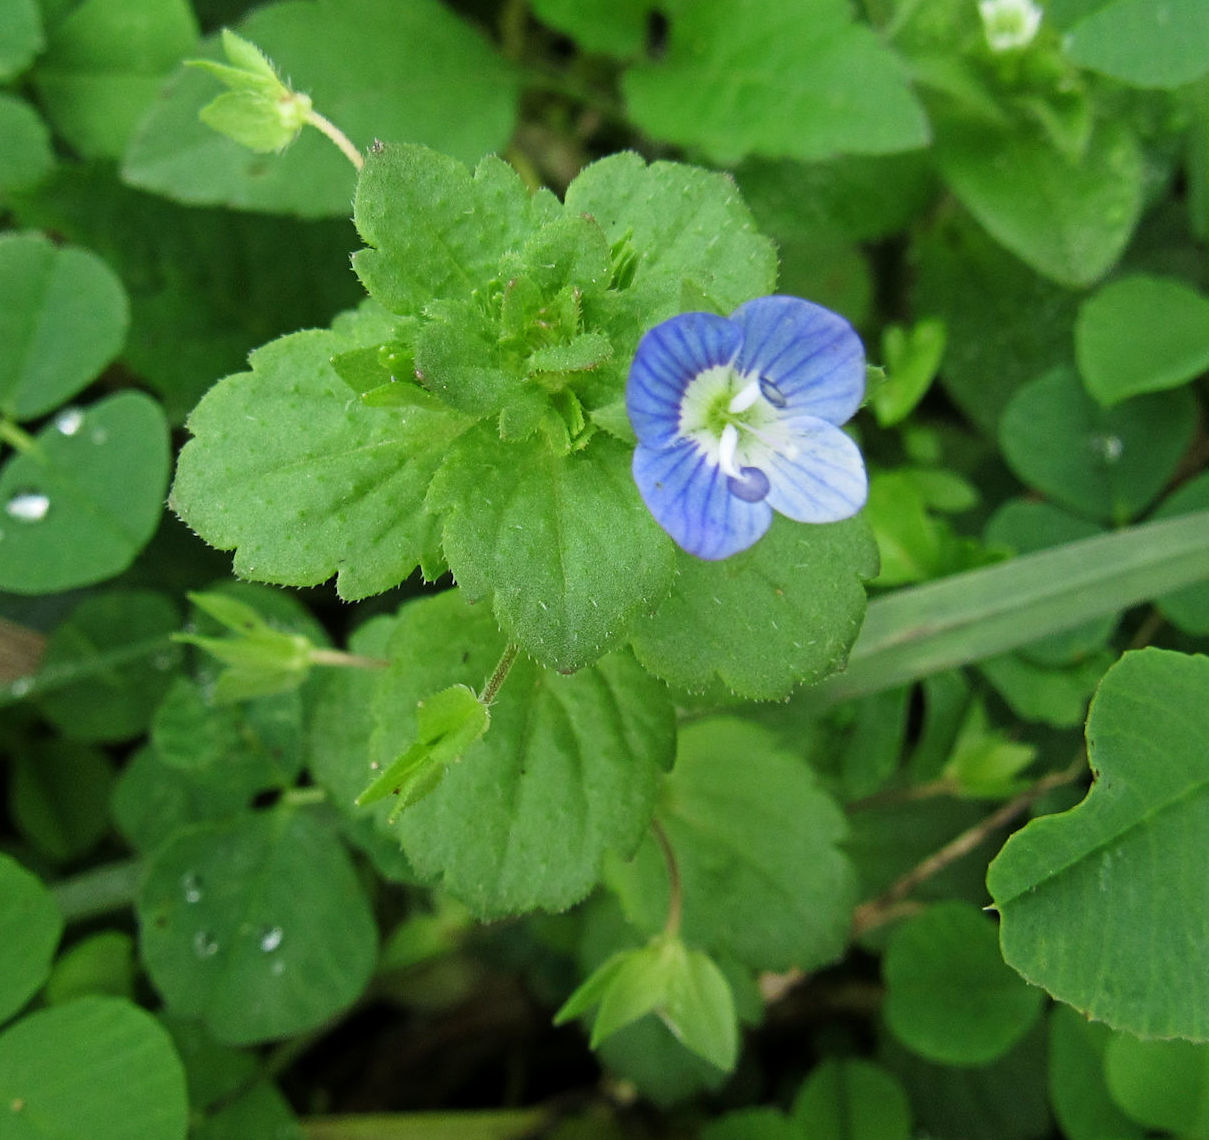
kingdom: Plantae
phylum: Tracheophyta
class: Magnoliopsida
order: Lamiales
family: Plantaginaceae
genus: Veronica
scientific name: Veronica persica
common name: Common field-speedwell
